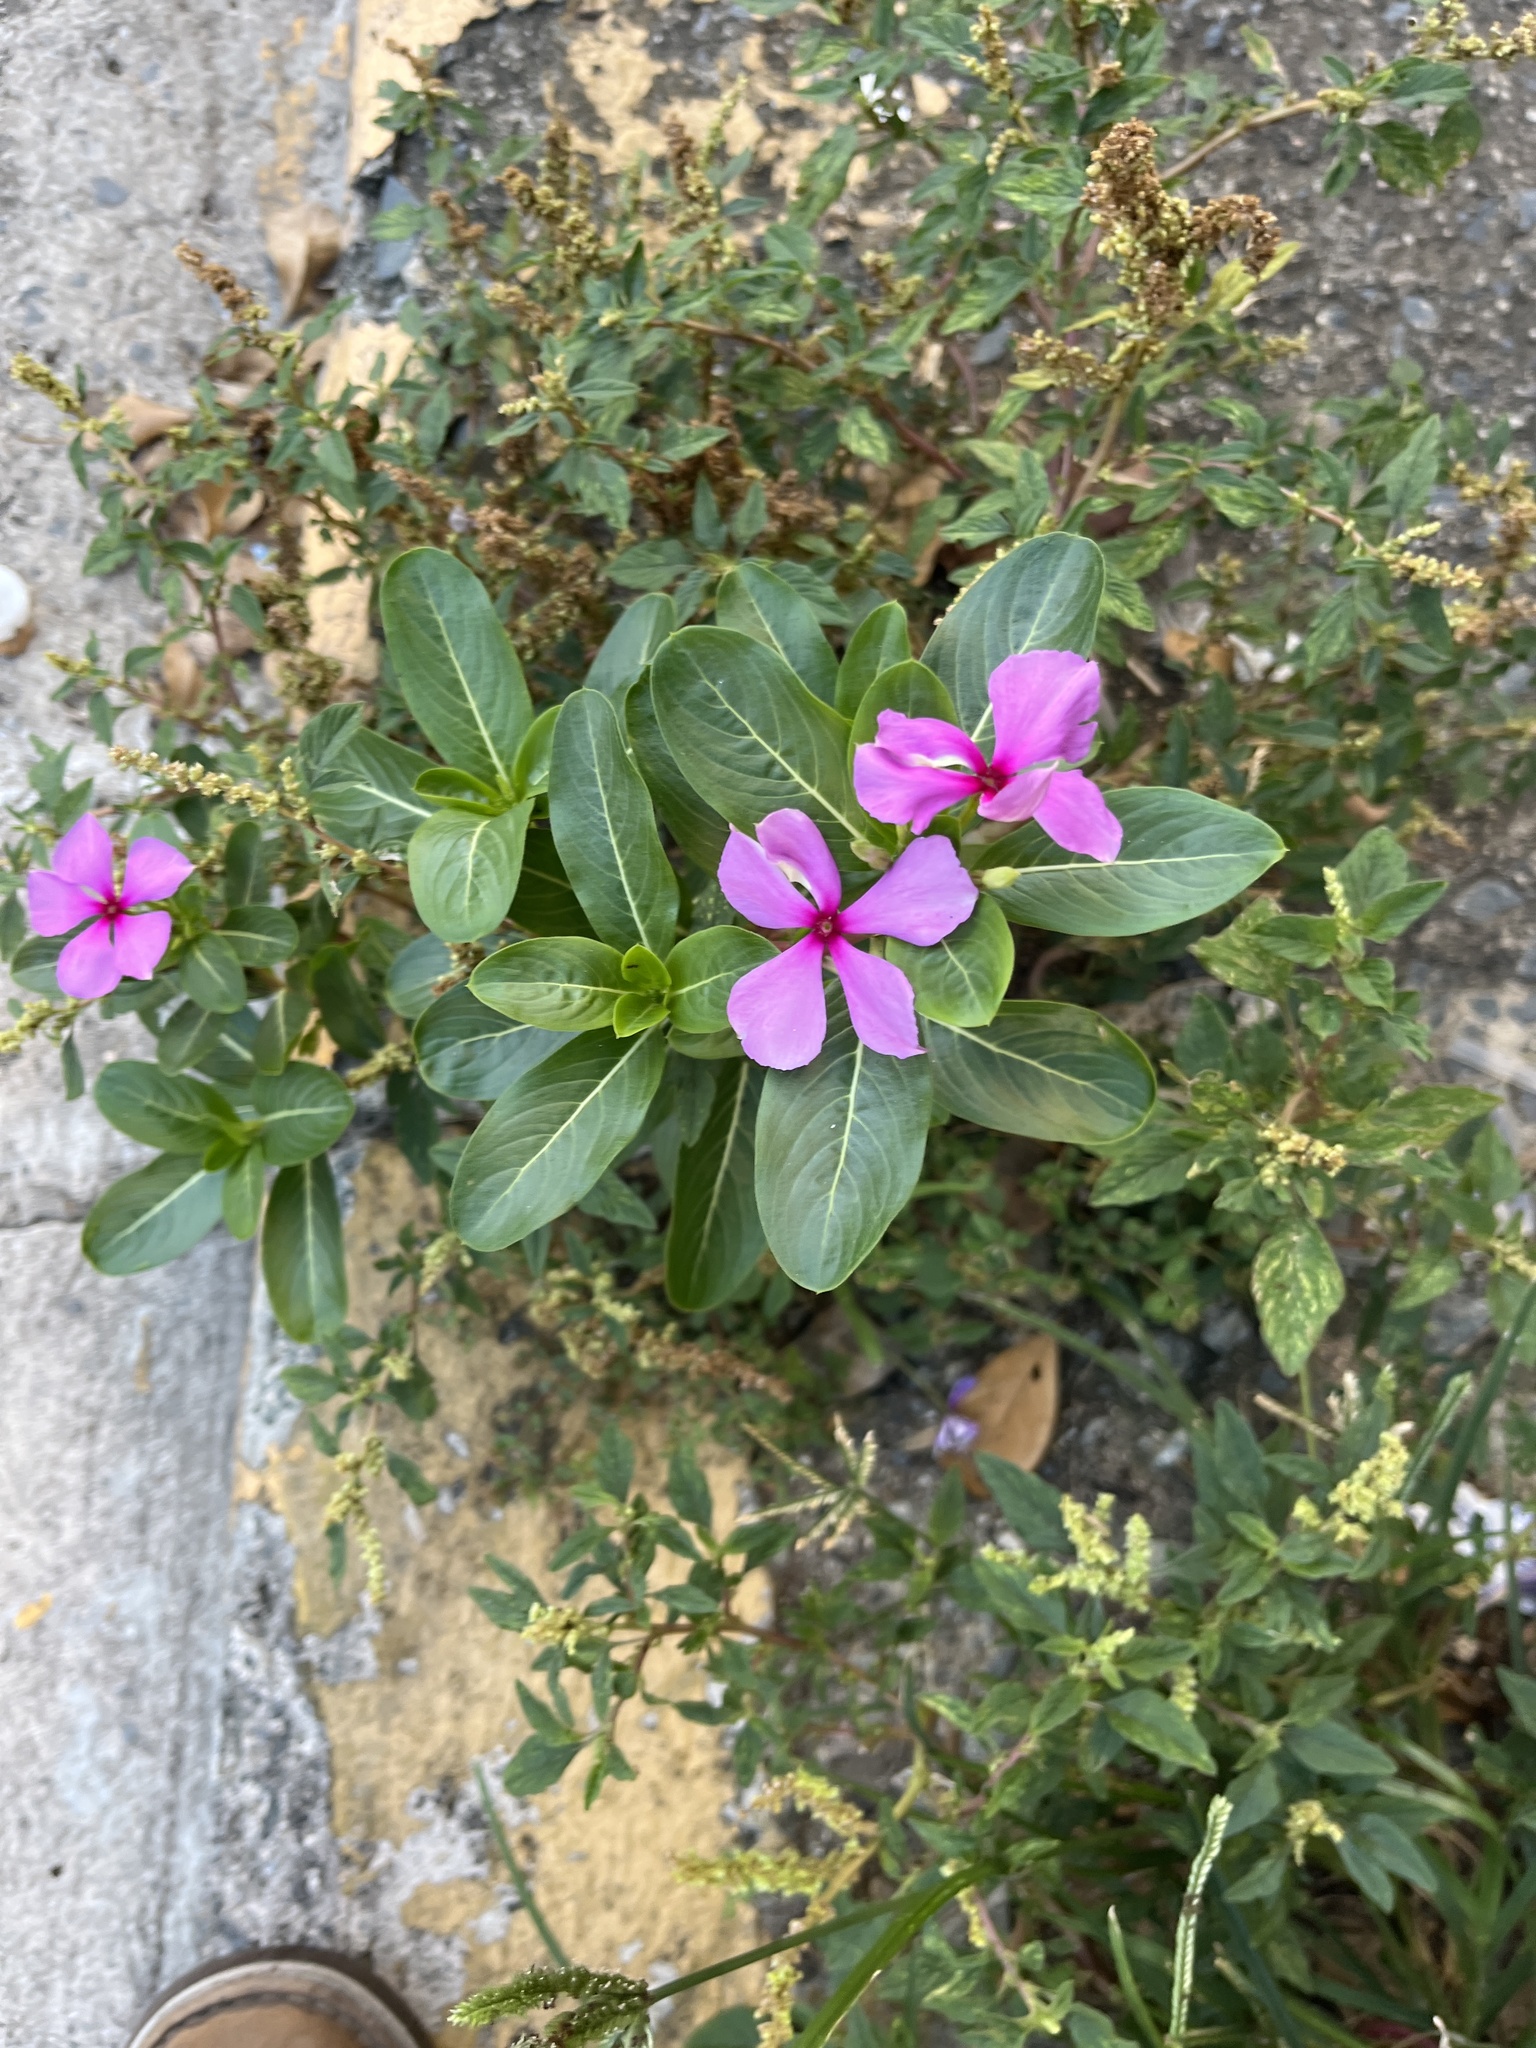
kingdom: Plantae
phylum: Tracheophyta
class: Magnoliopsida
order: Gentianales
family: Apocynaceae
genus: Catharanthus
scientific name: Catharanthus roseus
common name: Madagascar periwinkle
